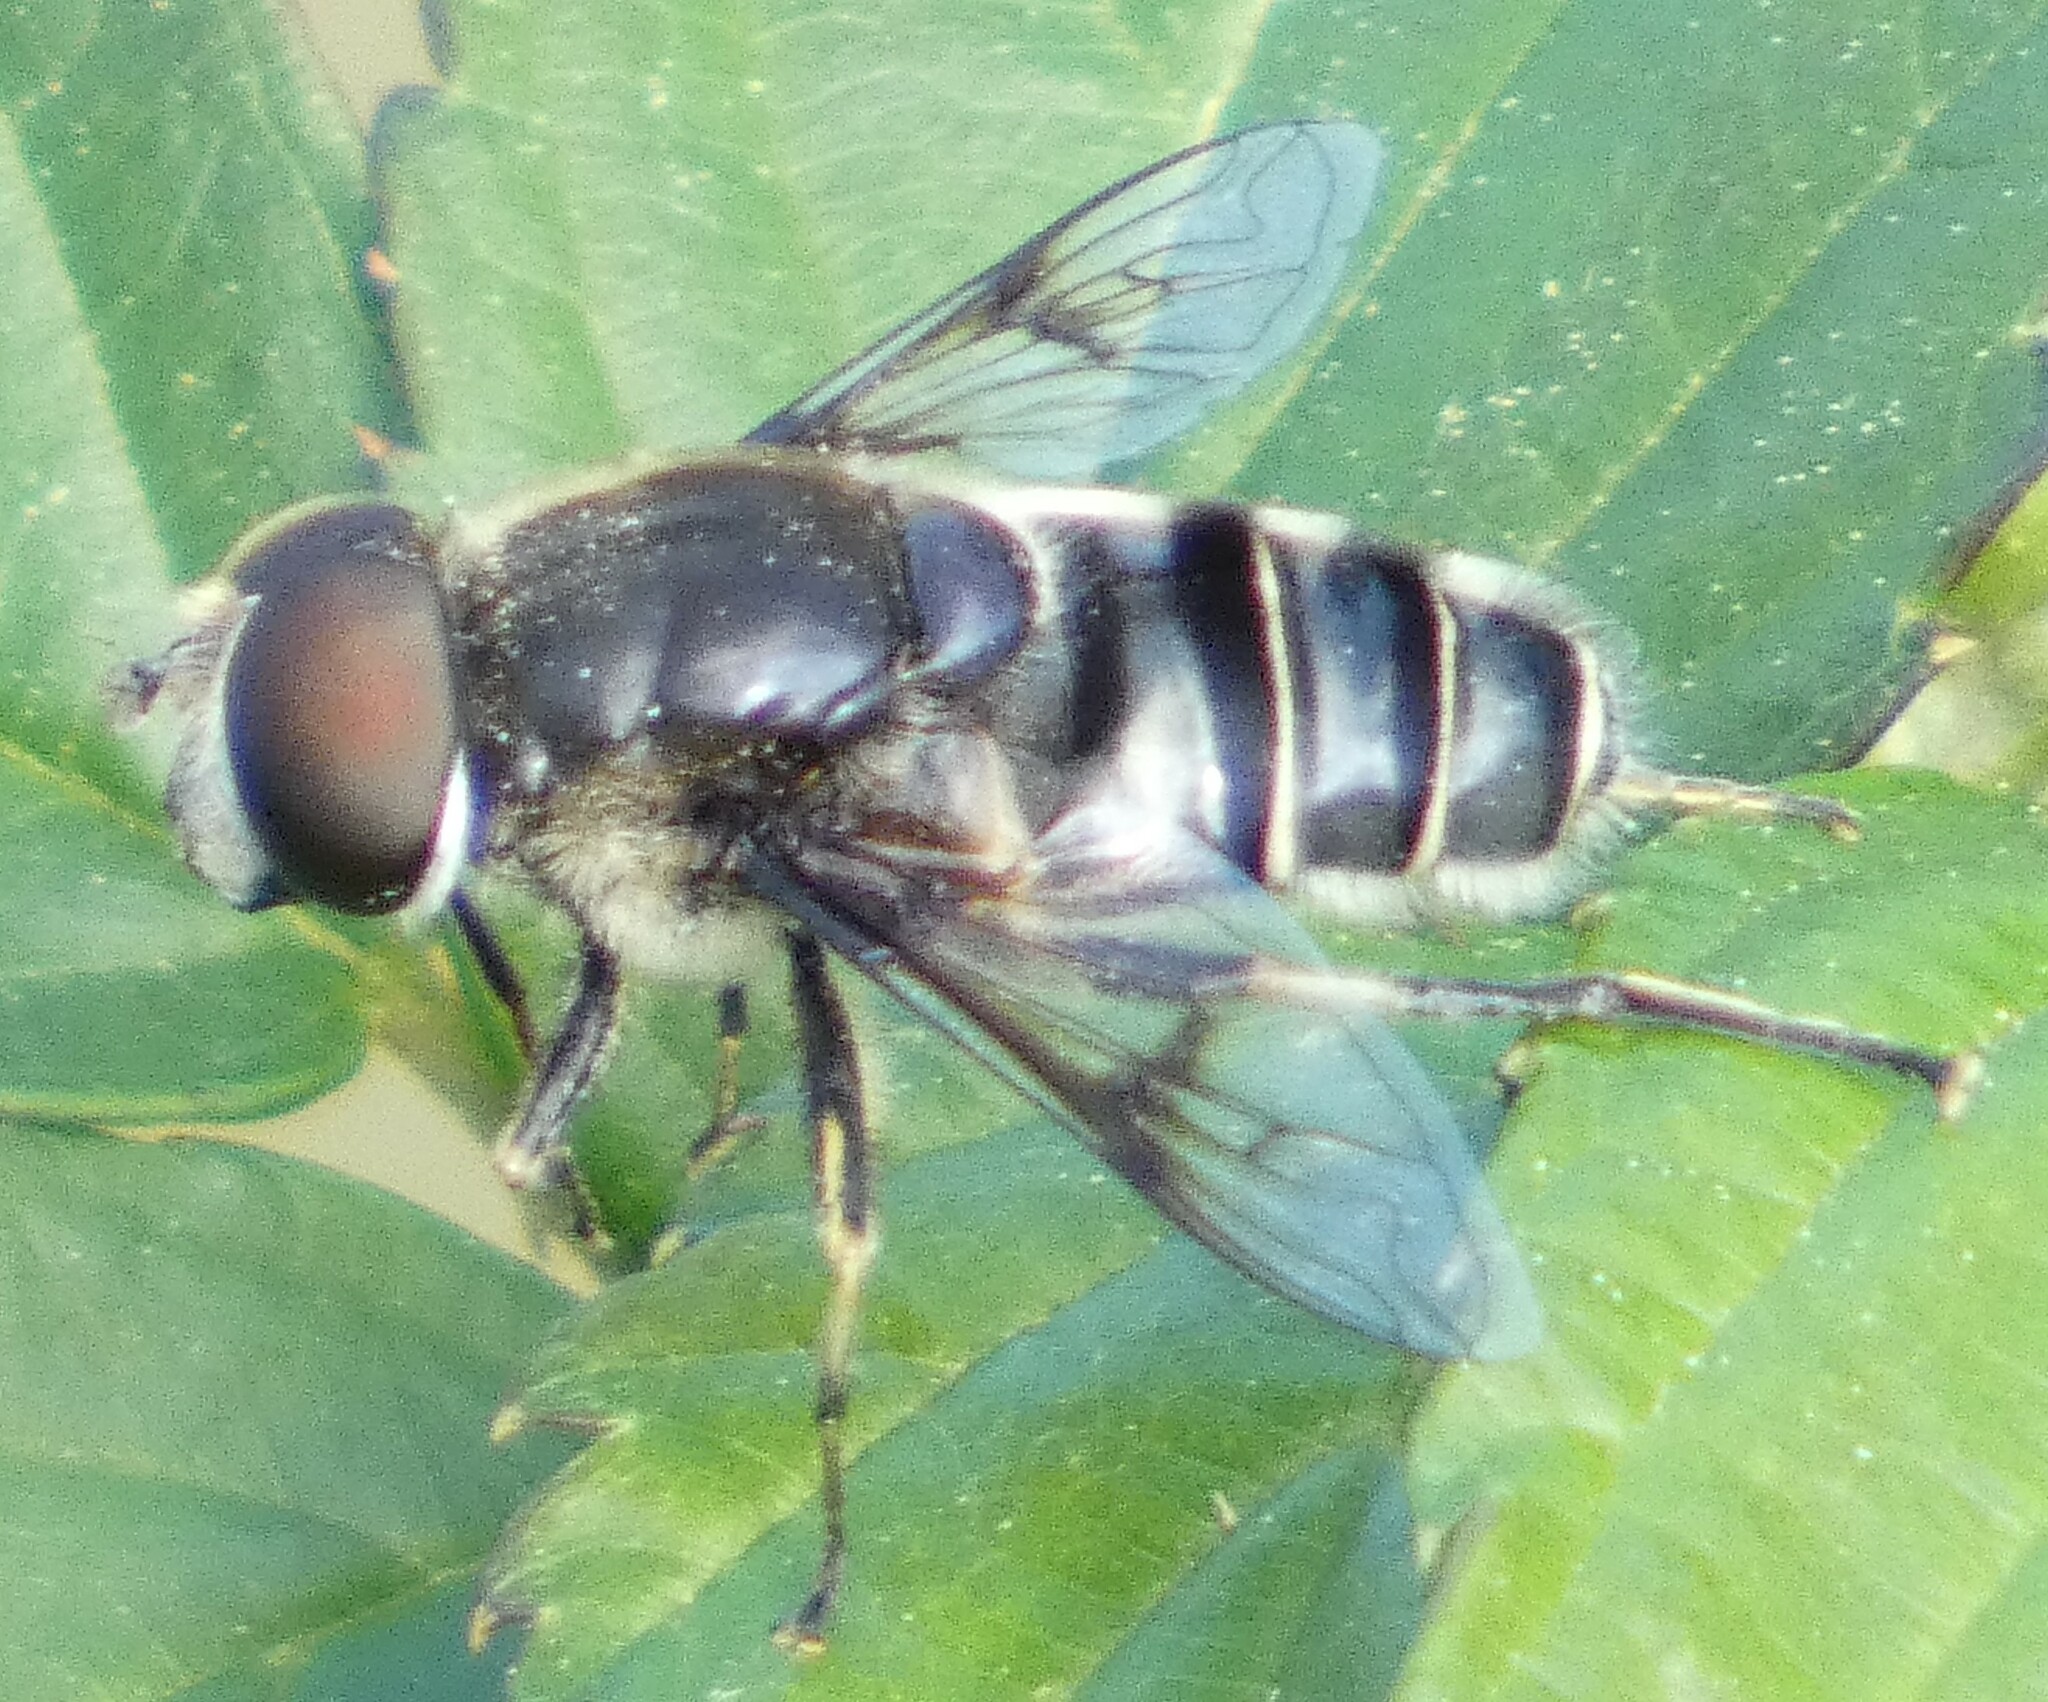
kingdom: Animalia
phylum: Arthropoda
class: Insecta
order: Diptera
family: Syrphidae
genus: Eristalis
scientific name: Eristalis saxorum
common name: Blue-polished drone fly
